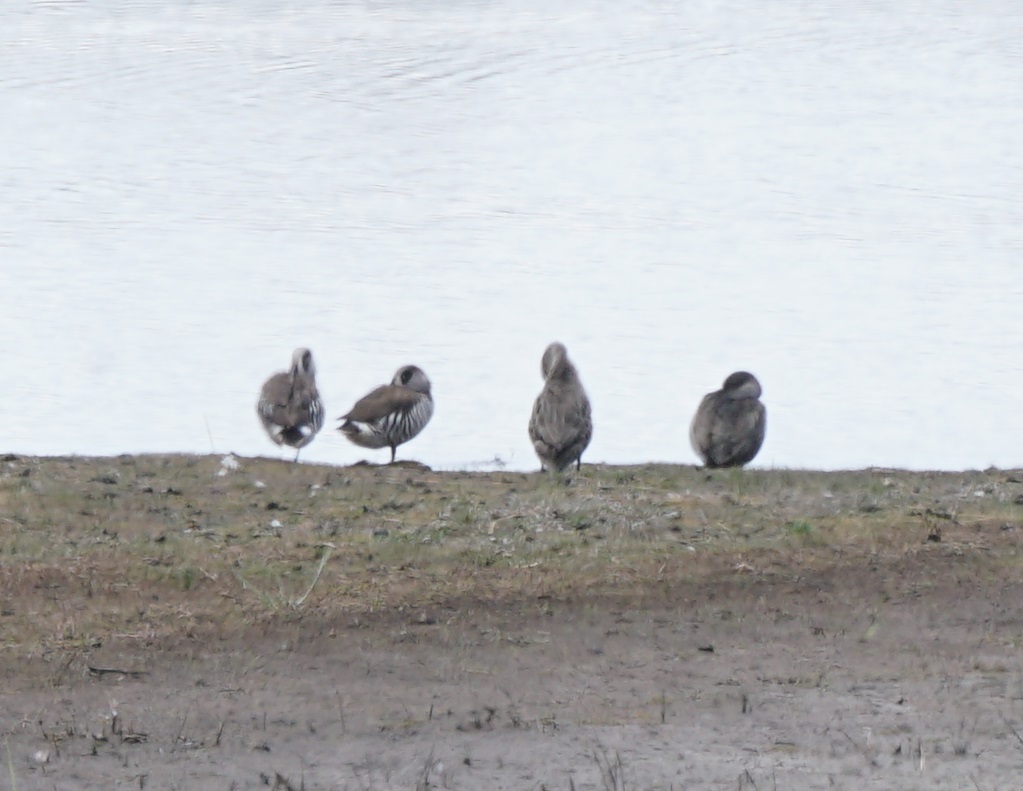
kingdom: Animalia
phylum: Chordata
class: Aves
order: Anseriformes
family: Anatidae
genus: Malacorhynchus
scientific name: Malacorhynchus membranaceus
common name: Pink-eared duck
